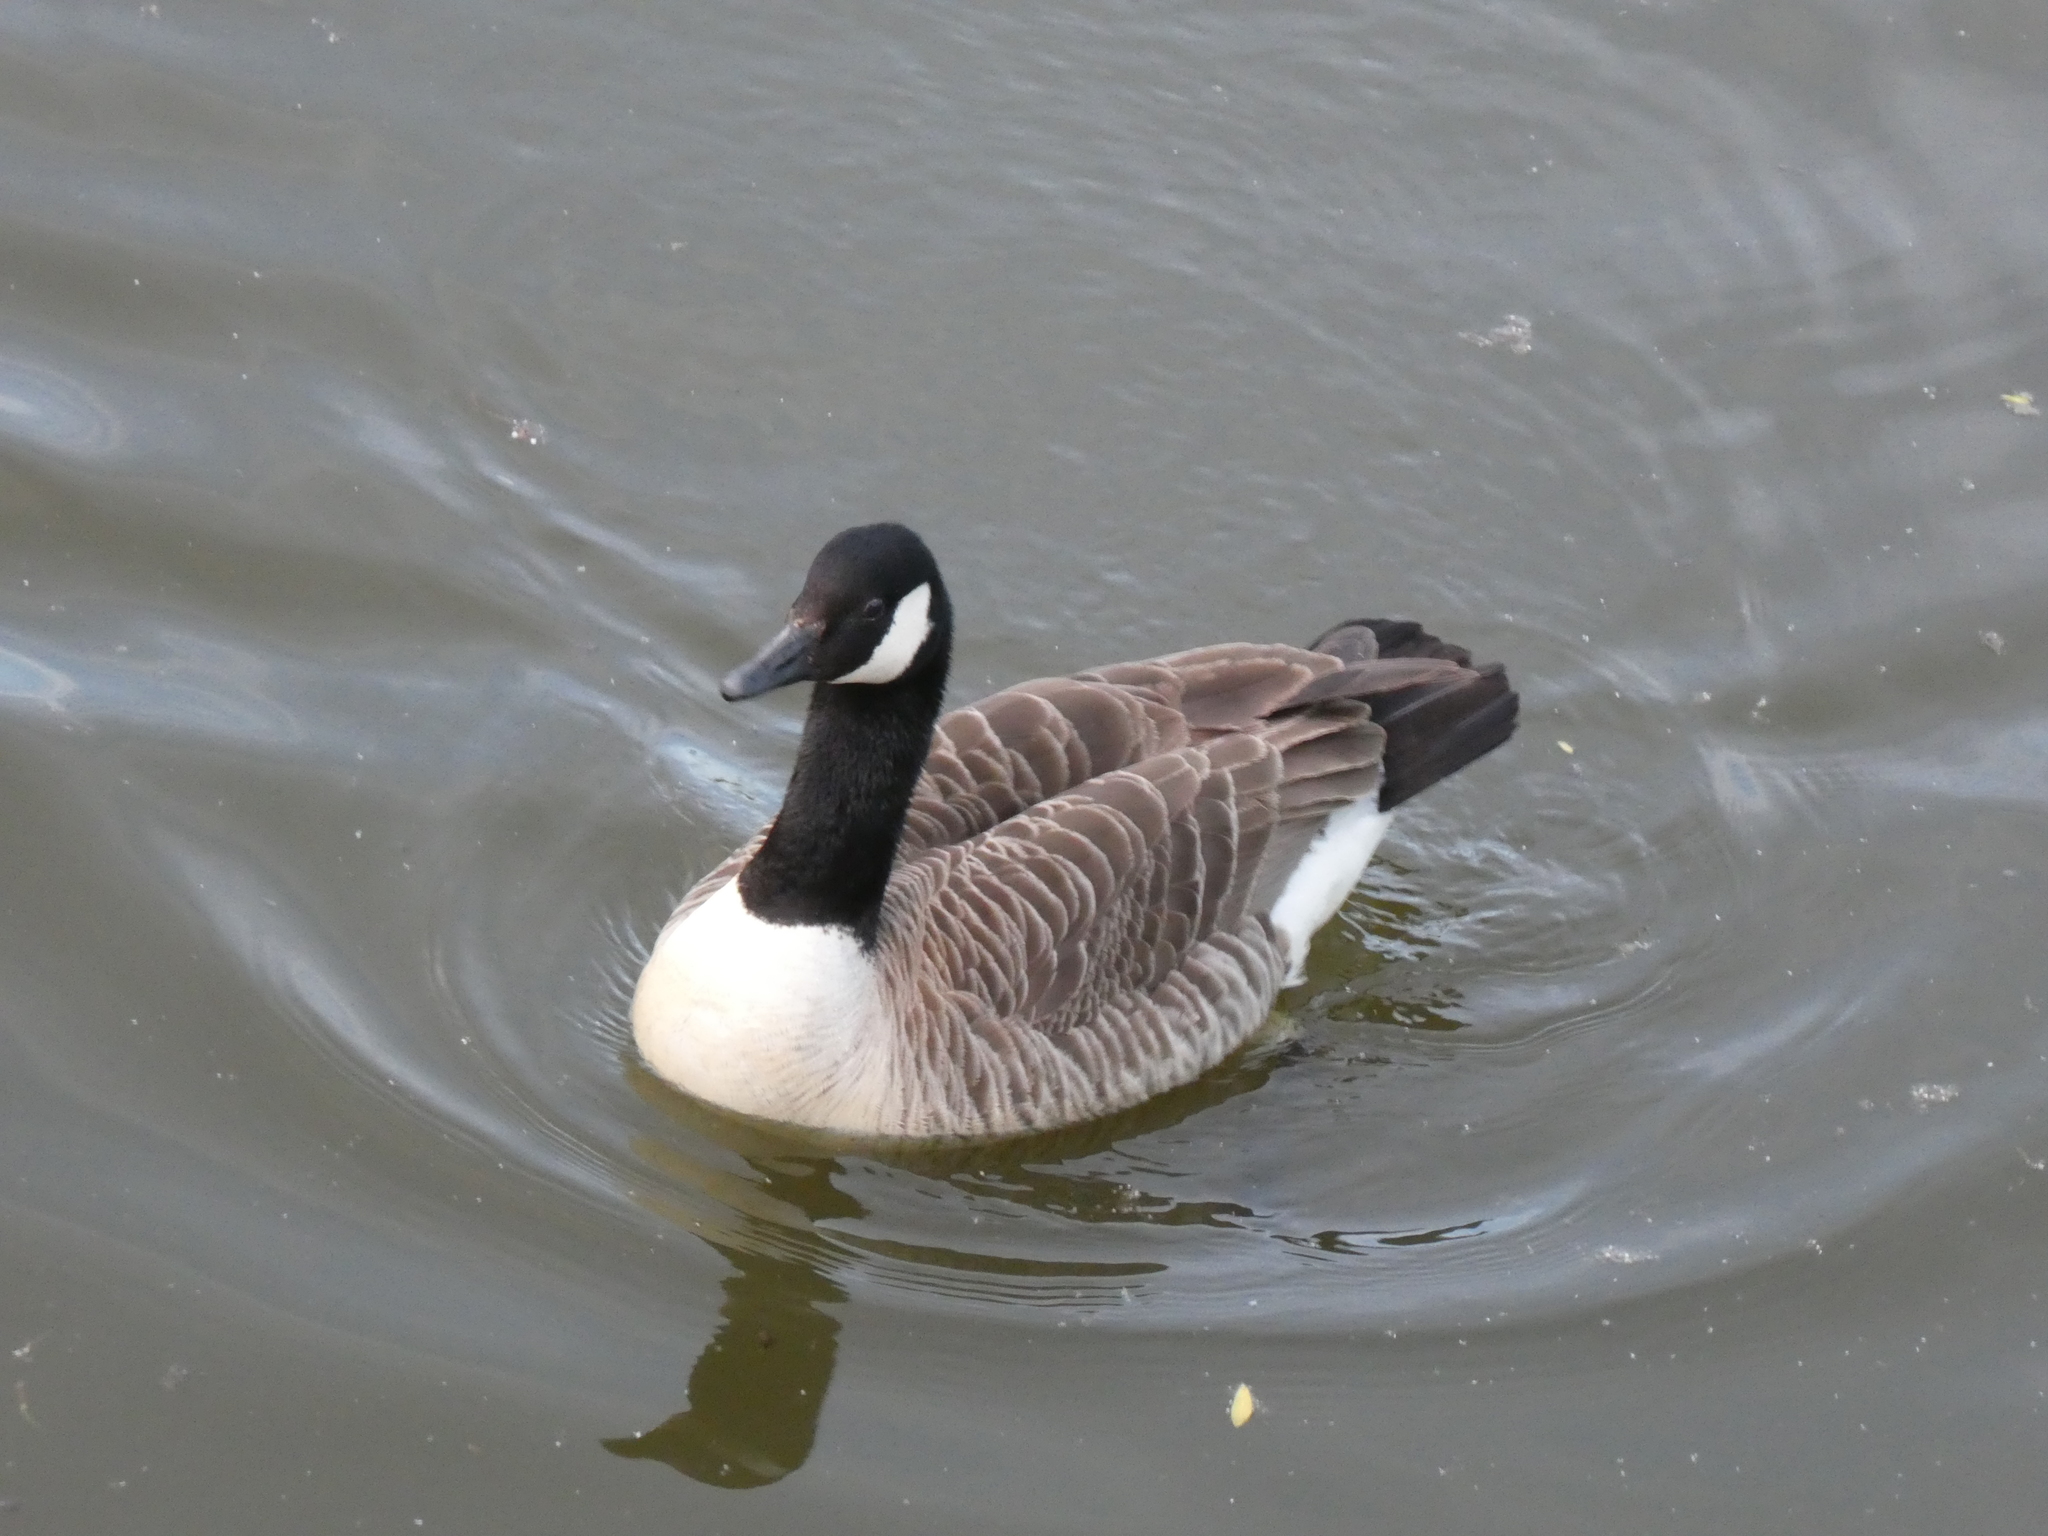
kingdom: Animalia
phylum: Chordata
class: Aves
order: Anseriformes
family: Anatidae
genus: Branta
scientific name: Branta canadensis
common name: Canada goose
